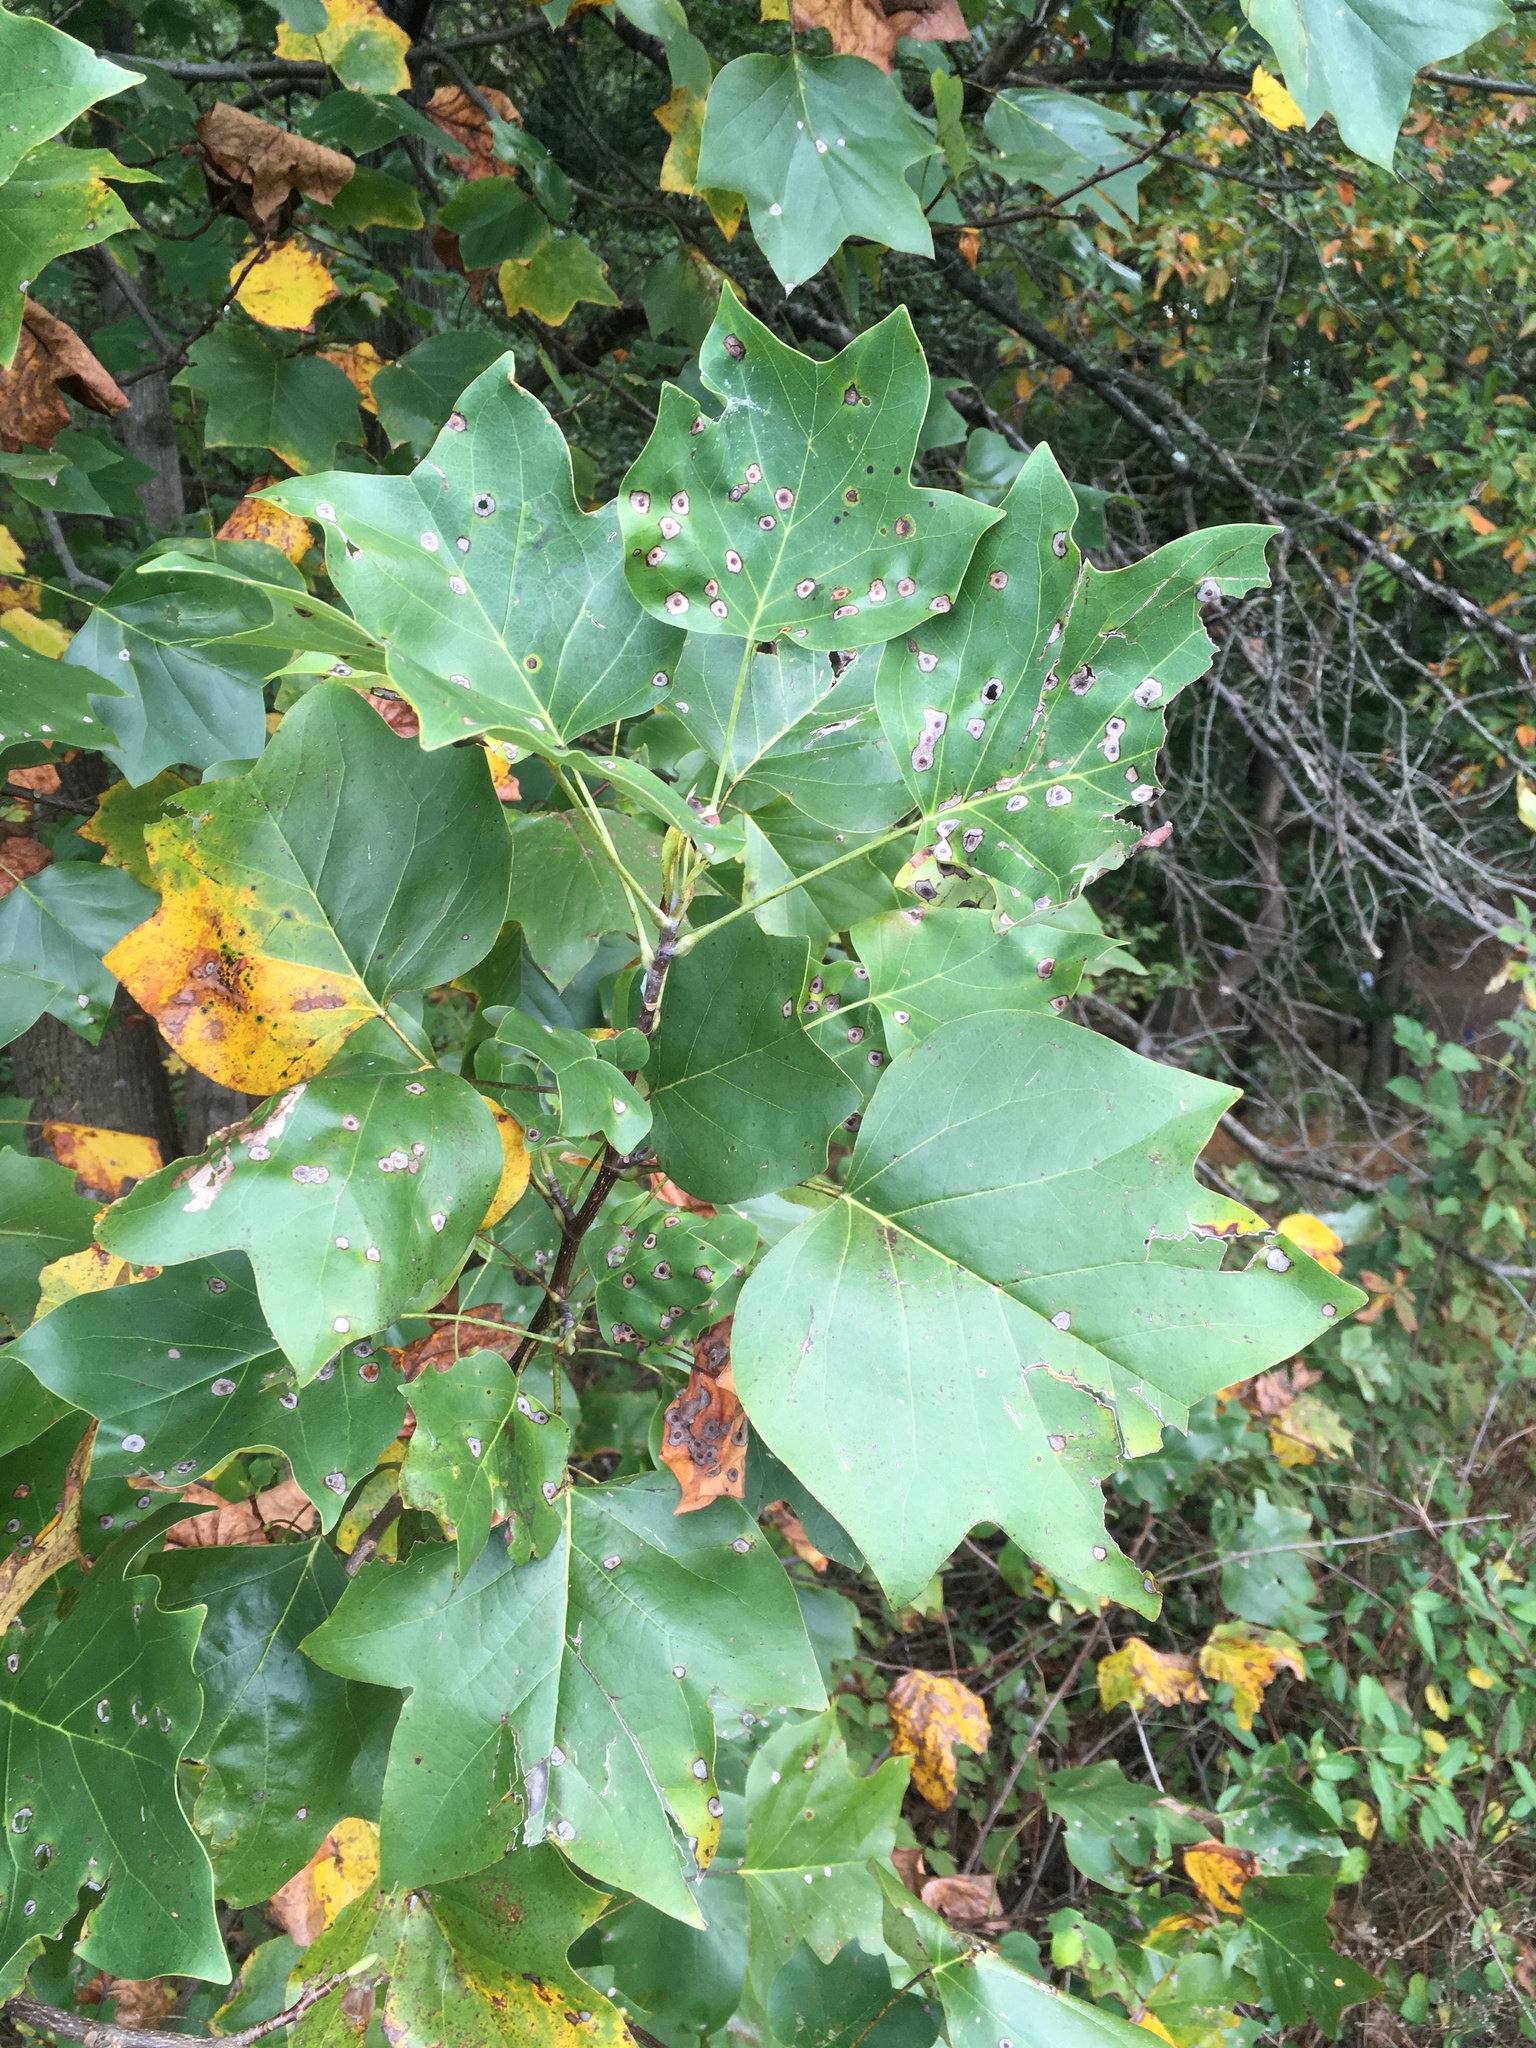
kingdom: Plantae
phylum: Tracheophyta
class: Magnoliopsida
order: Magnoliales
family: Magnoliaceae
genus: Liriodendron
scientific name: Liriodendron tulipifera
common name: Tulip tree
